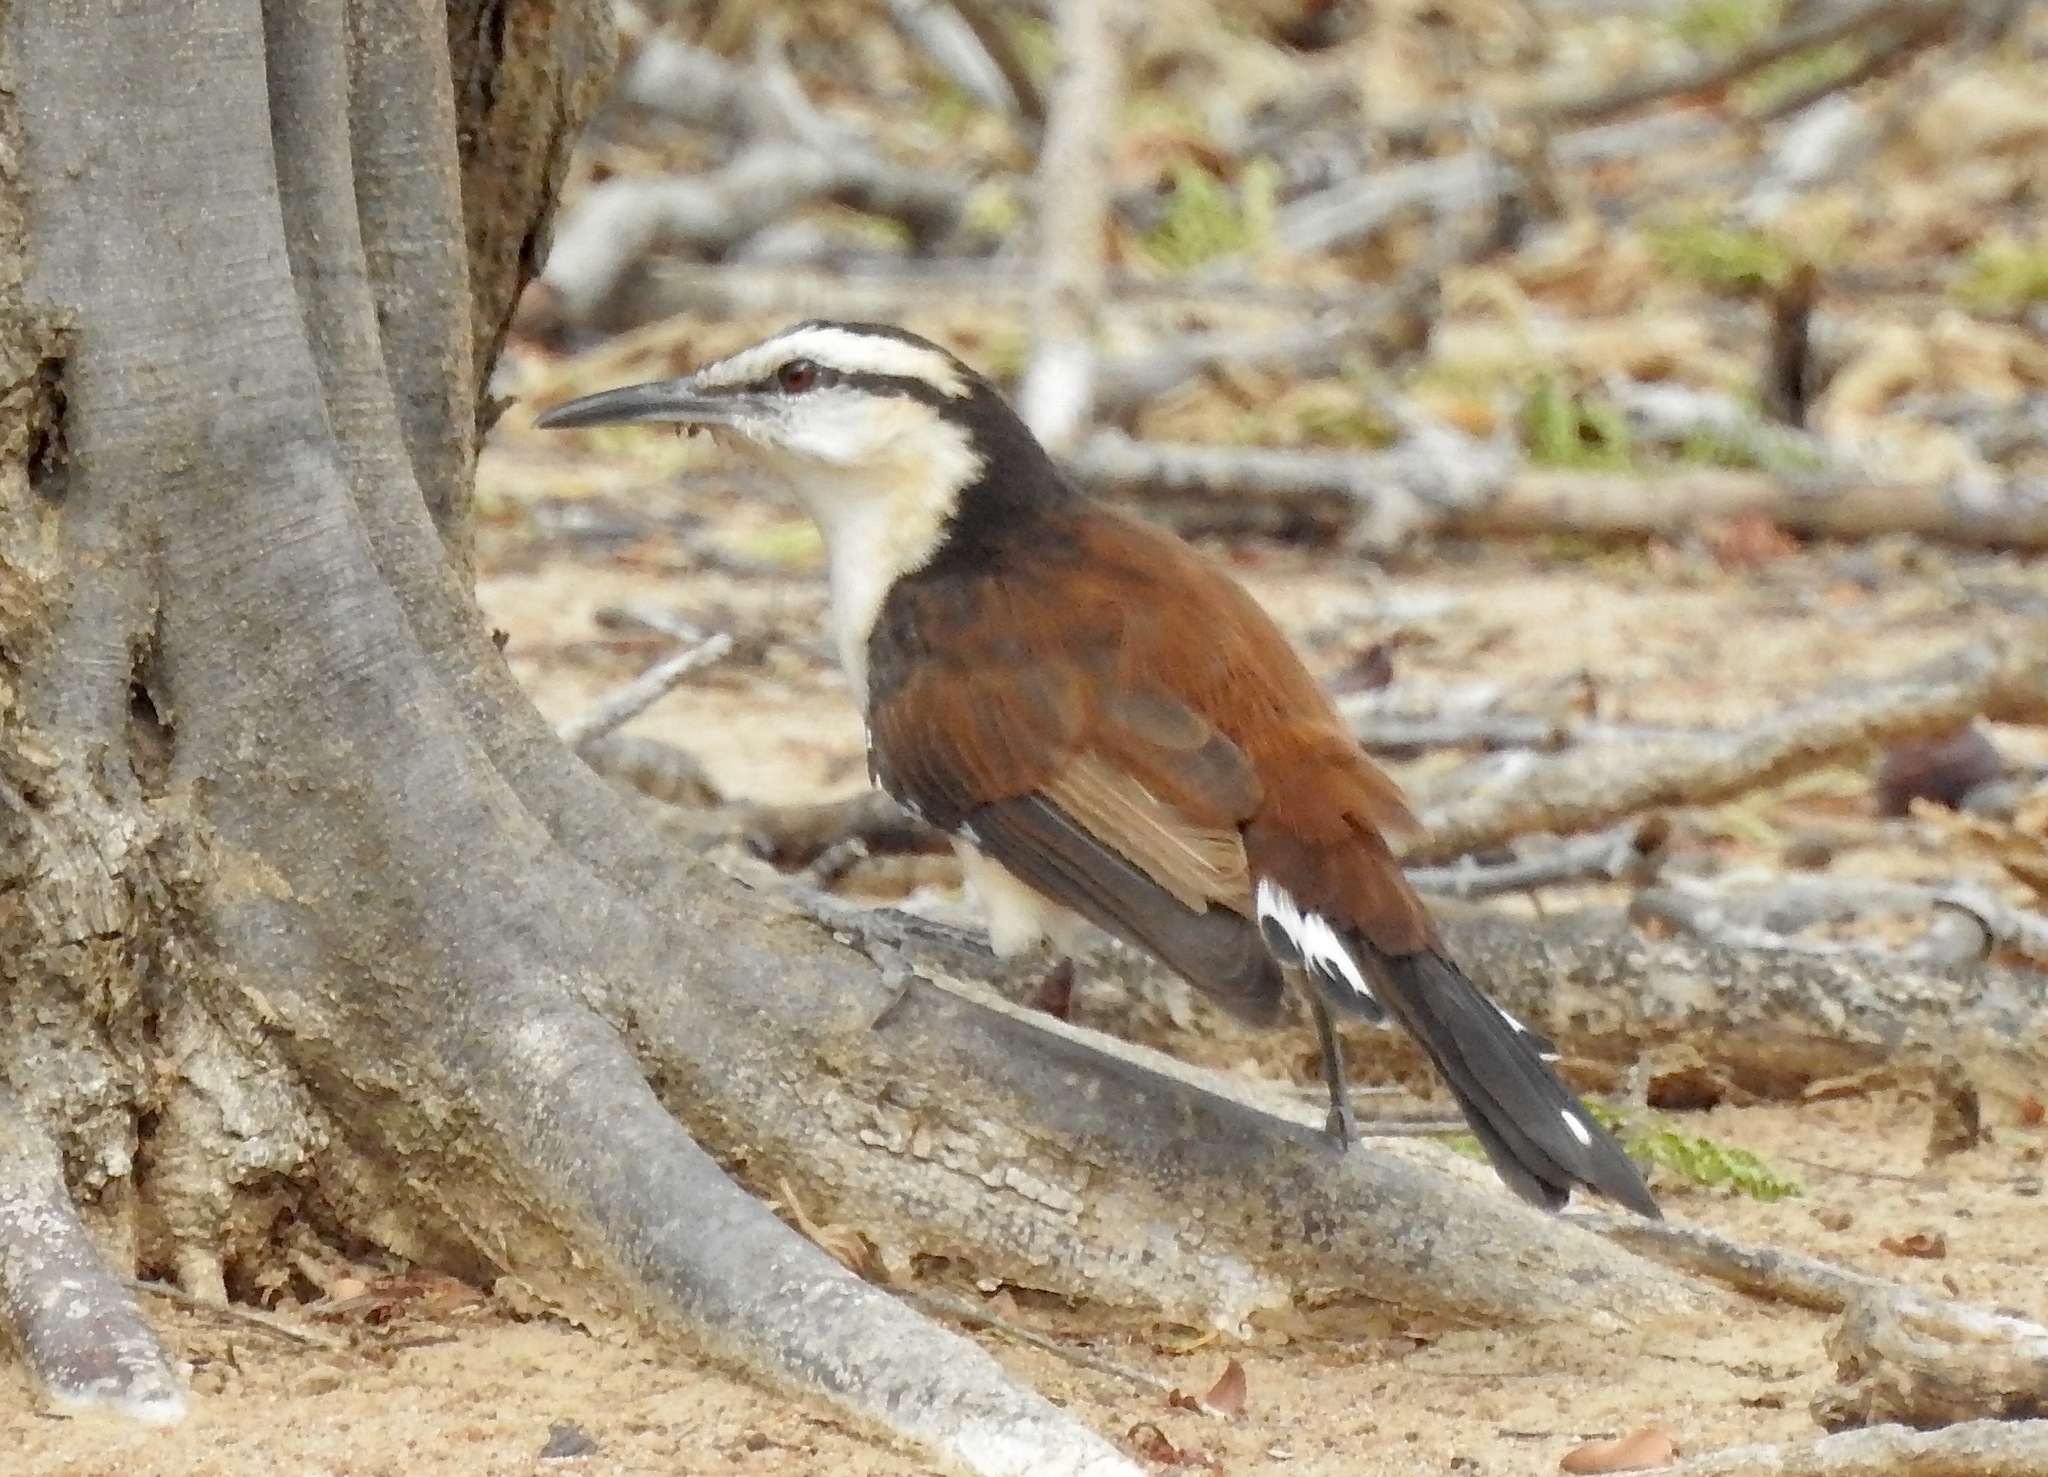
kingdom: Animalia
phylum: Chordata
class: Aves
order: Passeriformes
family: Troglodytidae
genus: Campylorhynchus
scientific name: Campylorhynchus griseus
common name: Bicolored wren
